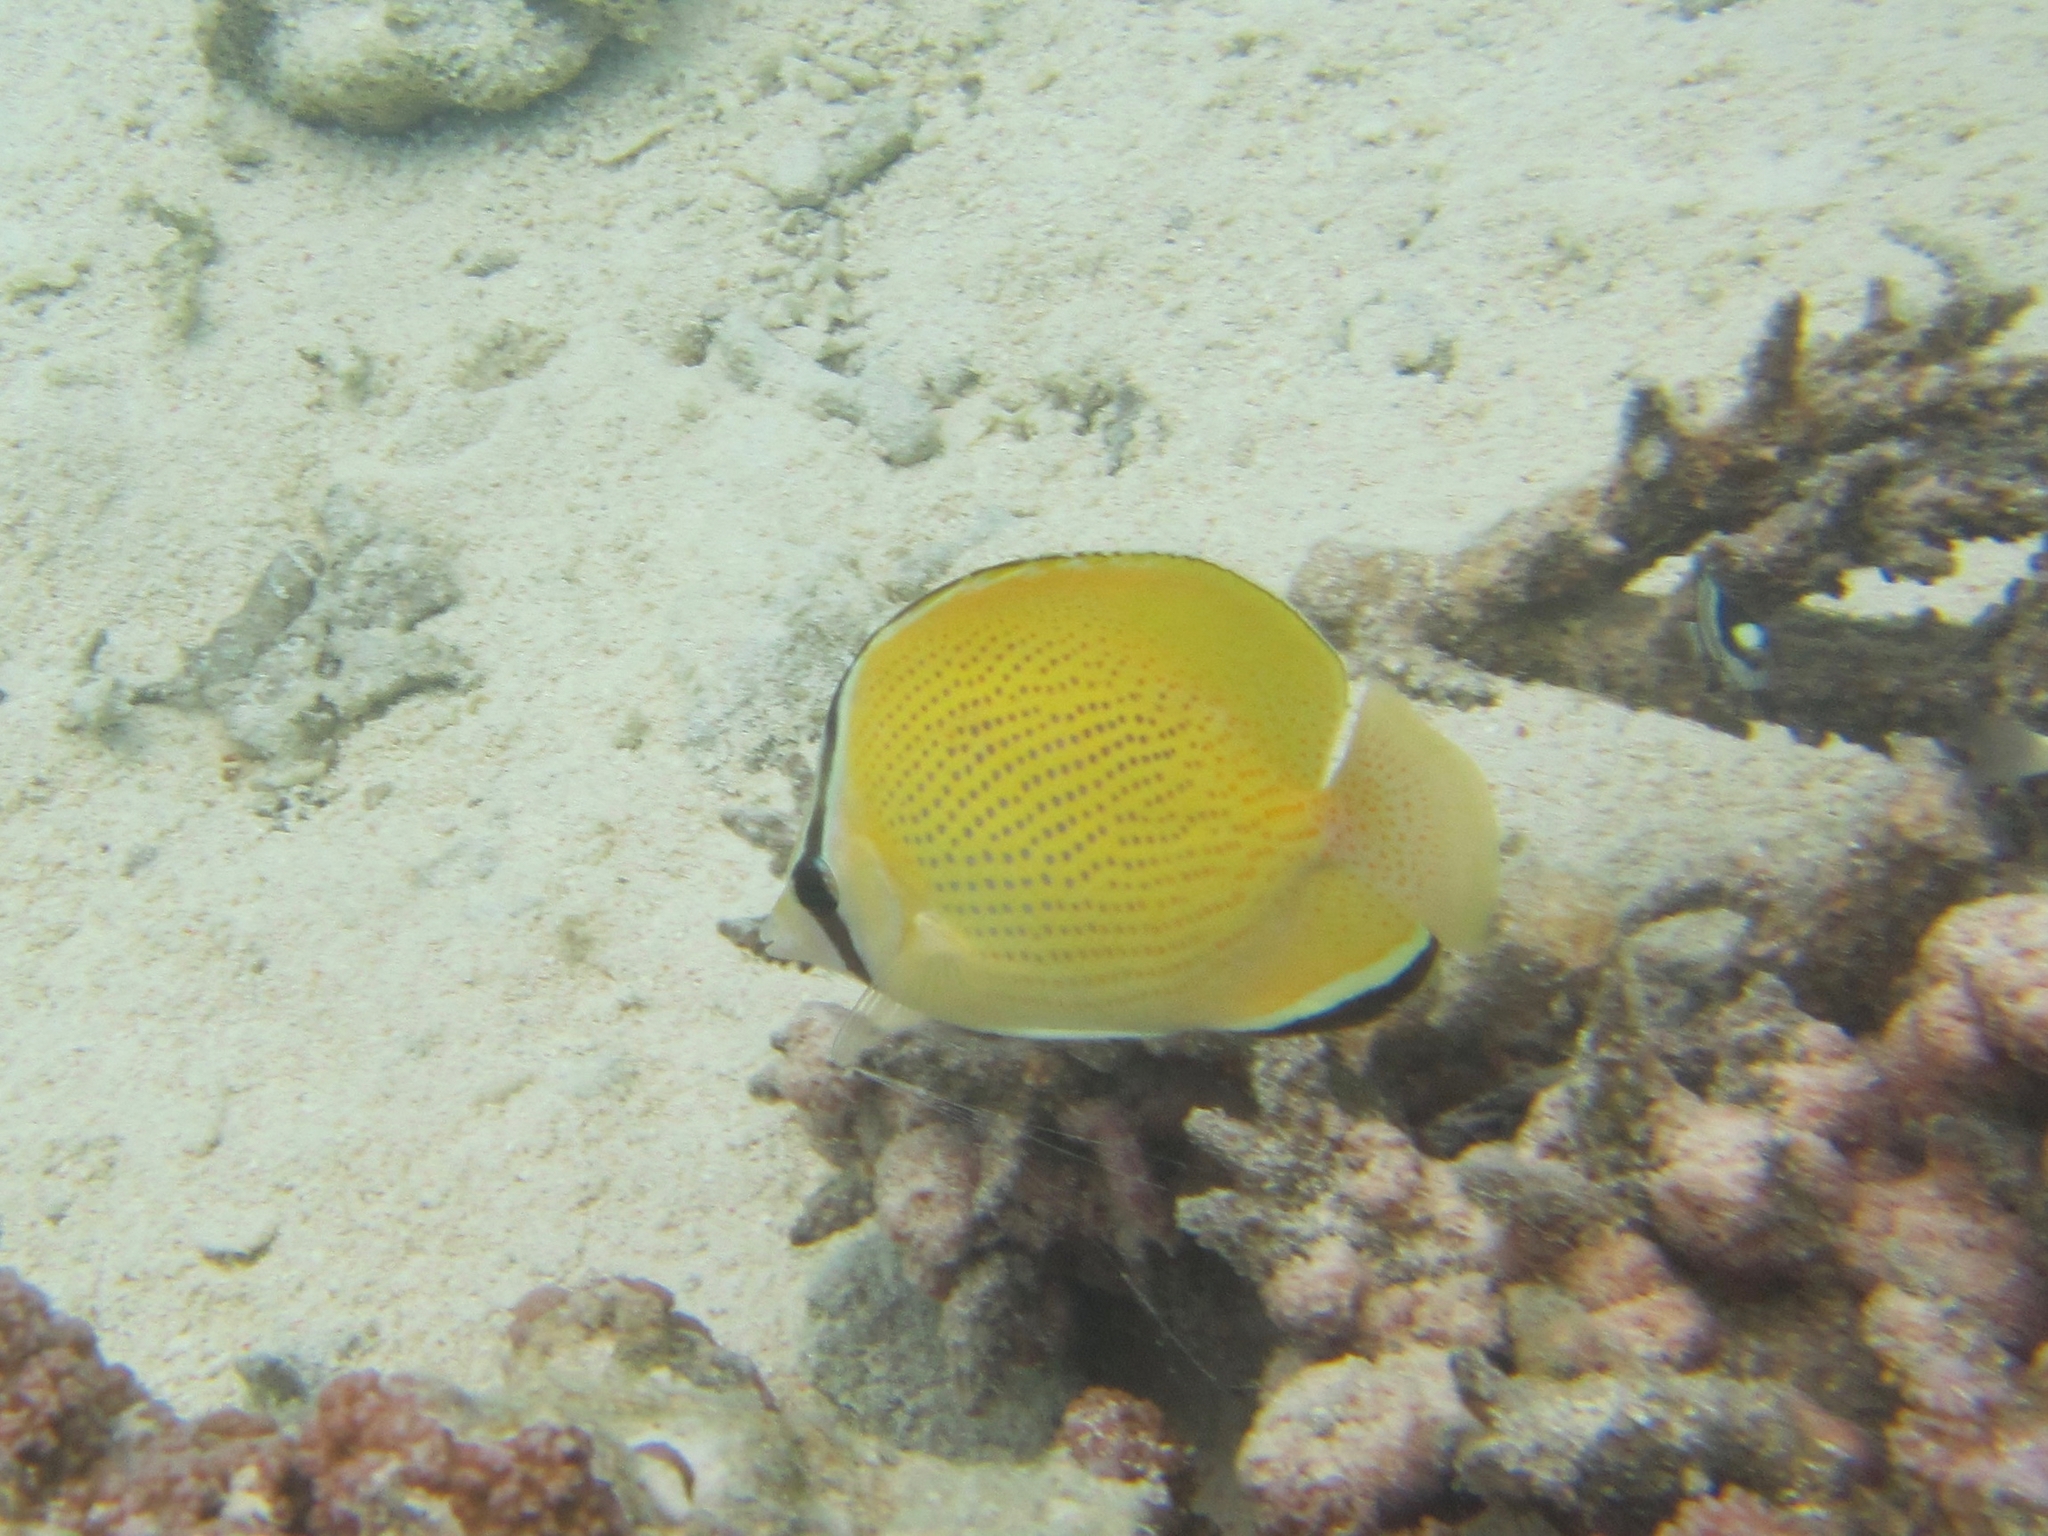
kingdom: Animalia
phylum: Chordata
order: Perciformes
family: Chaetodontidae
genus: Chaetodon
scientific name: Chaetodon citrinellus
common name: Speckled butterflyfish
